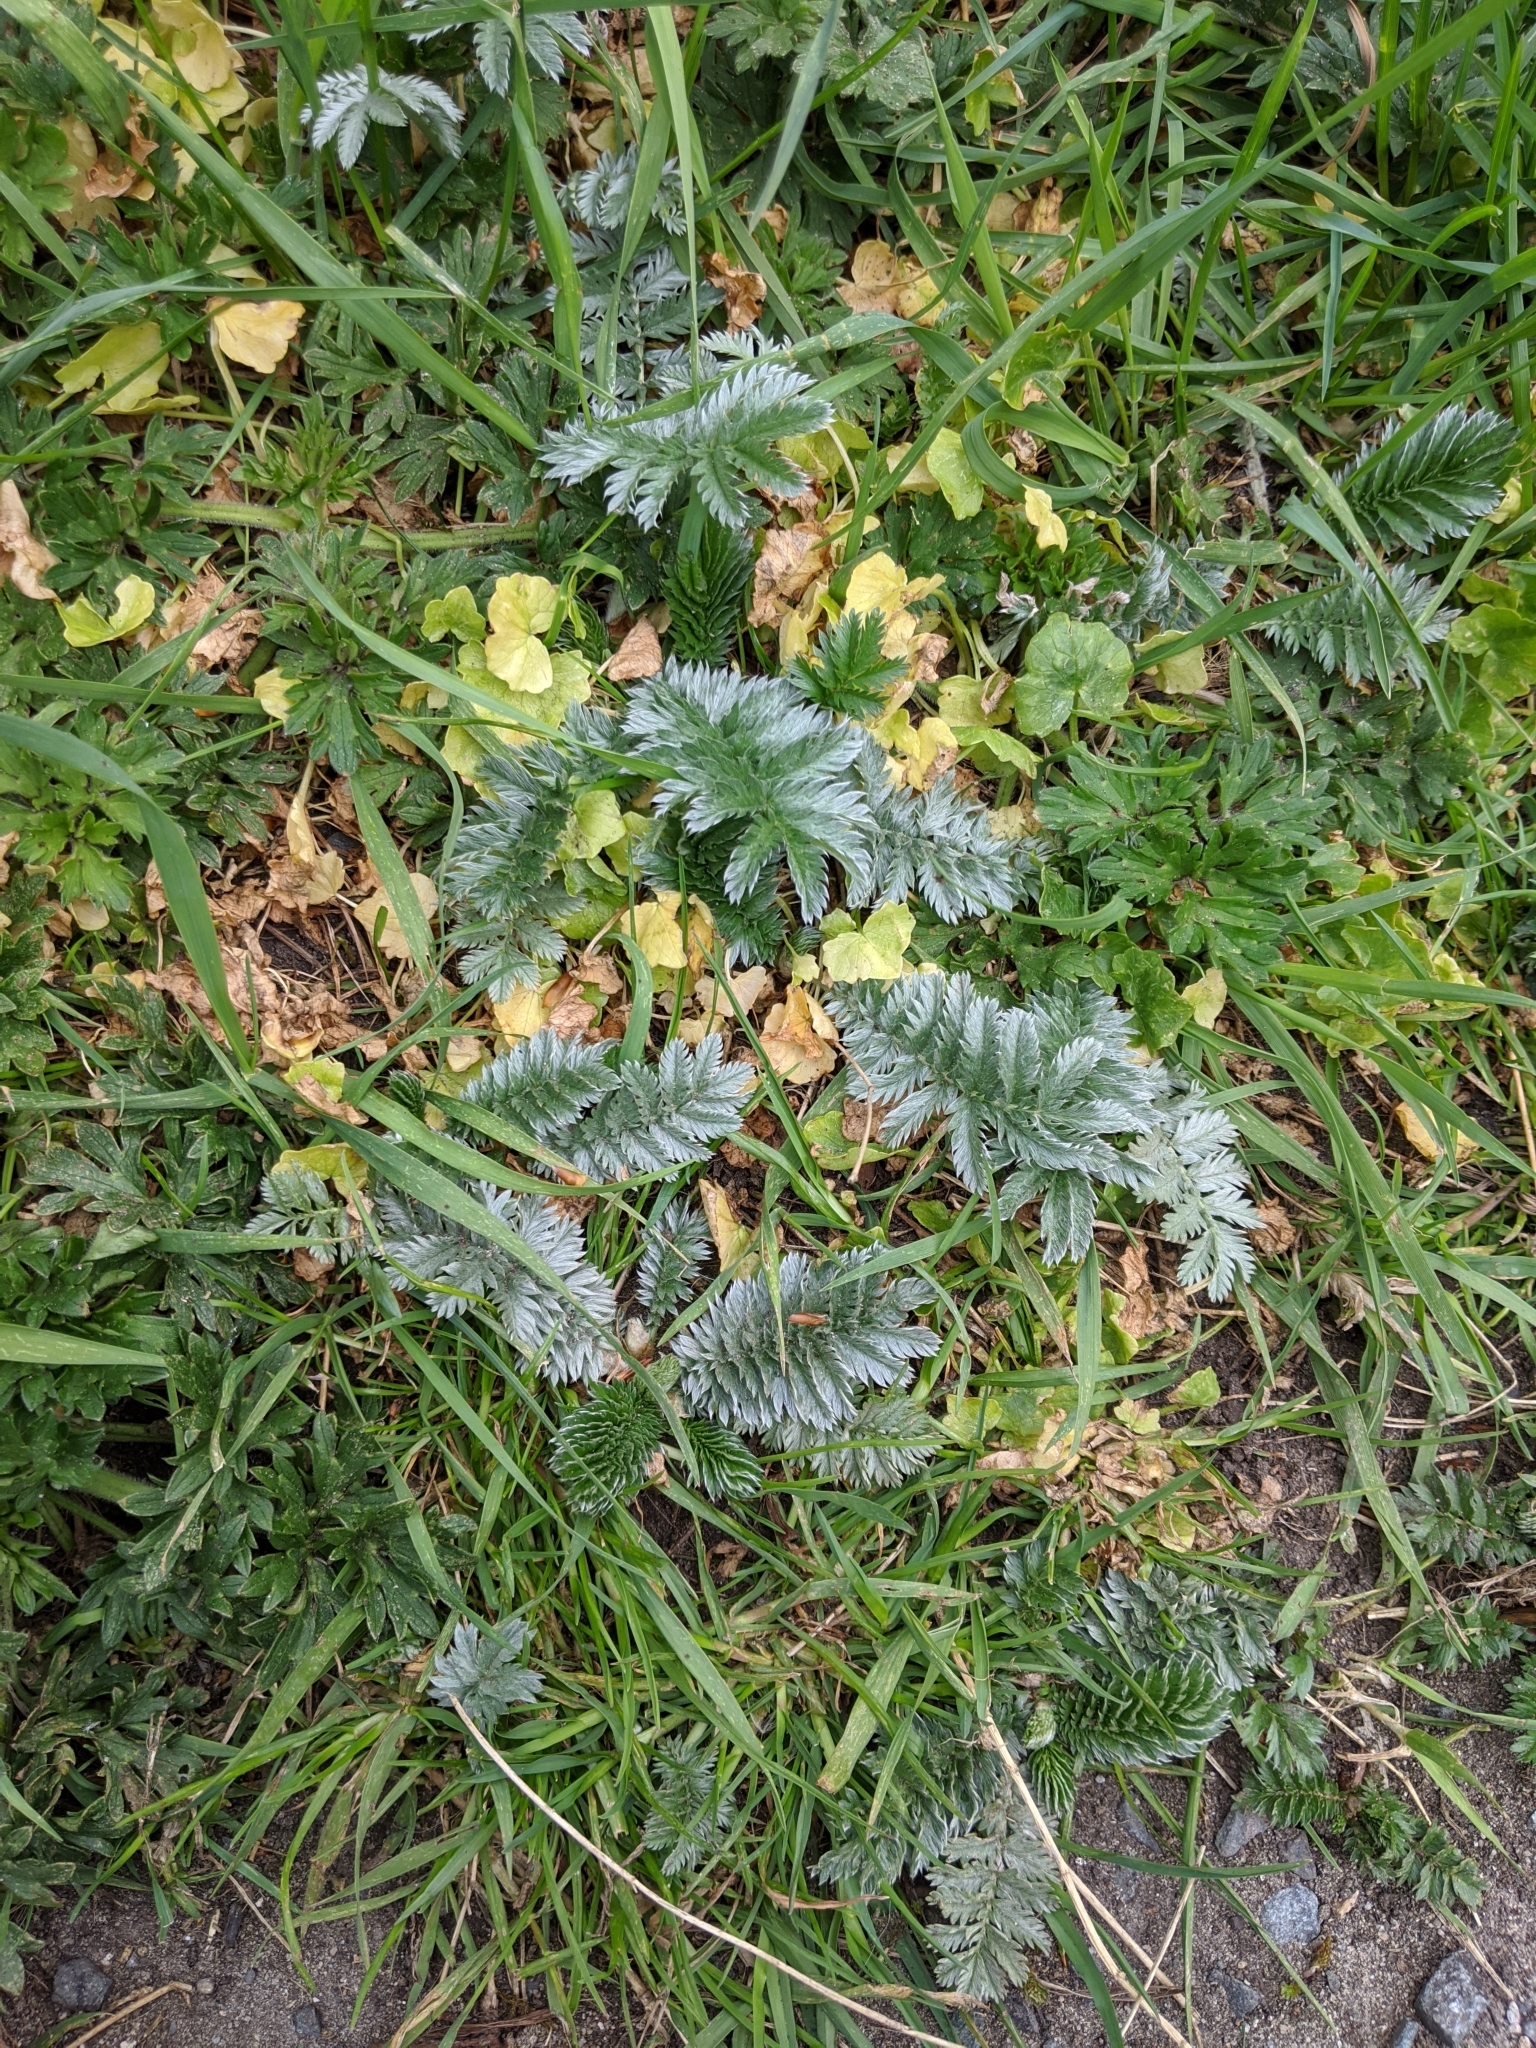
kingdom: Plantae
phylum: Tracheophyta
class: Magnoliopsida
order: Rosales
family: Rosaceae
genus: Argentina
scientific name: Argentina anserina
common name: Common silverweed
